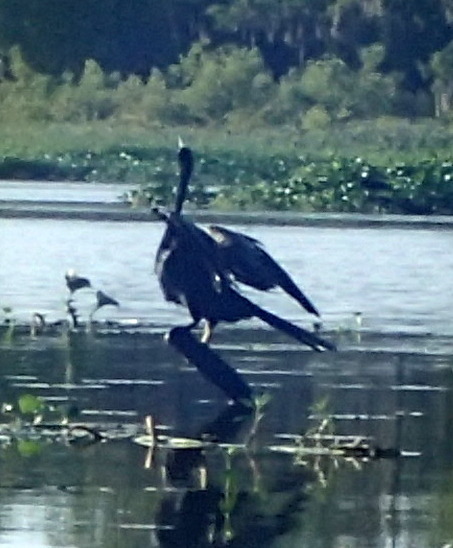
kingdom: Animalia
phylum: Chordata
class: Aves
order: Suliformes
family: Anhingidae
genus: Anhinga
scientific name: Anhinga anhinga
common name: Anhinga
